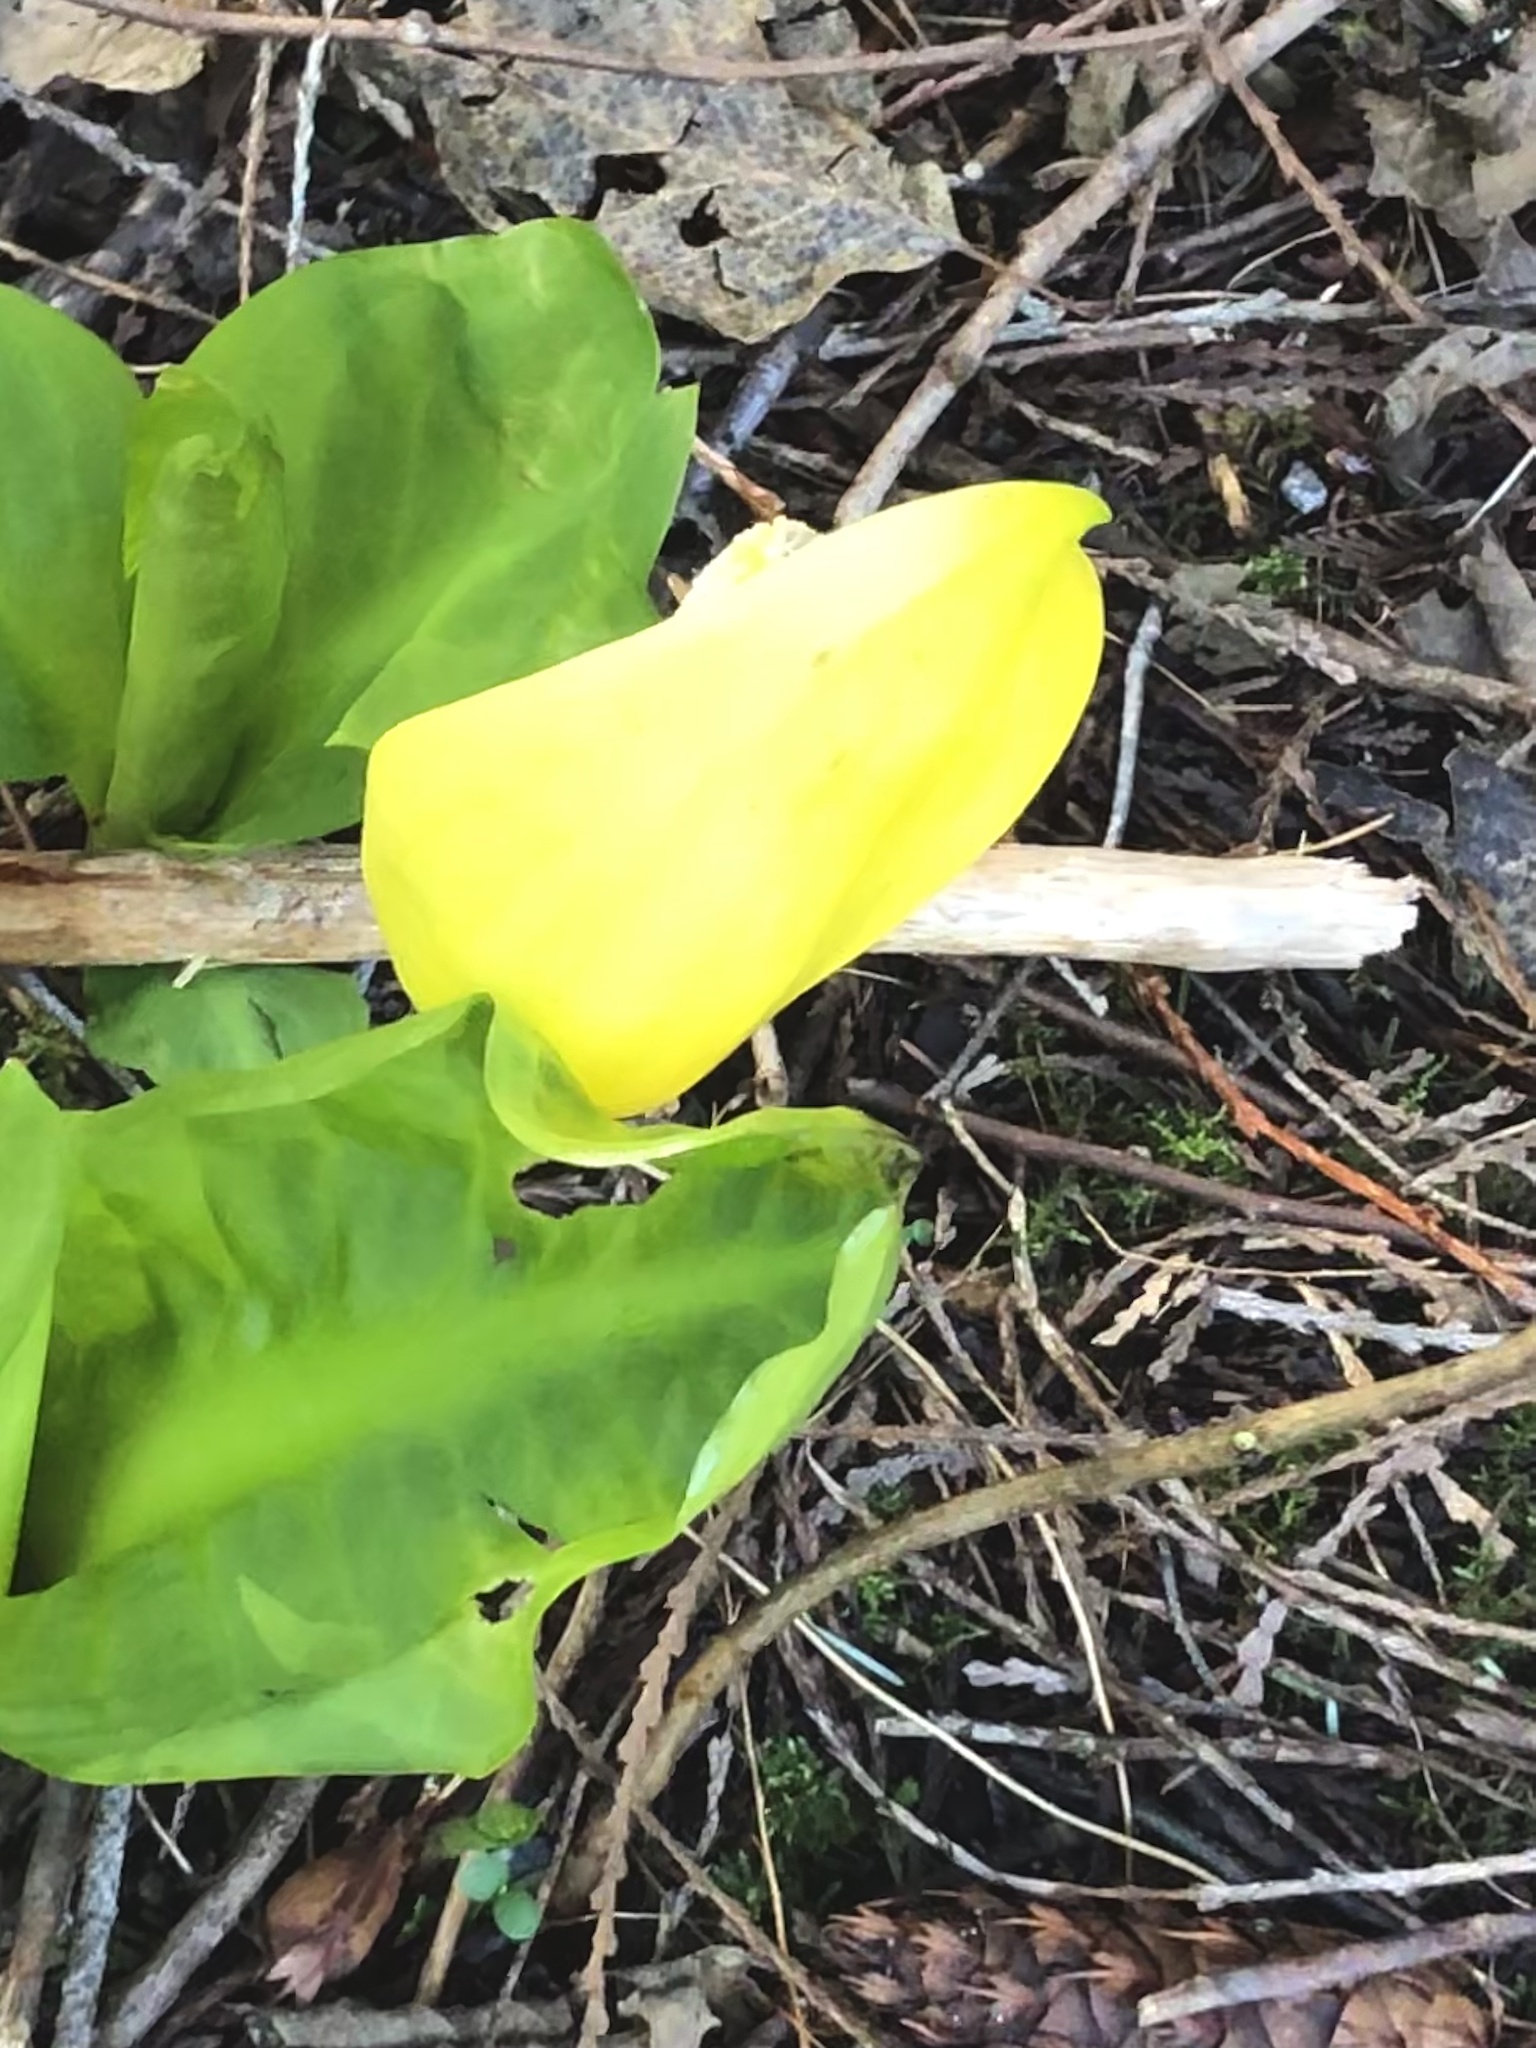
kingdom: Plantae
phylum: Tracheophyta
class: Liliopsida
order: Alismatales
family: Araceae
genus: Lysichiton
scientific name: Lysichiton americanus
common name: American skunk cabbage
